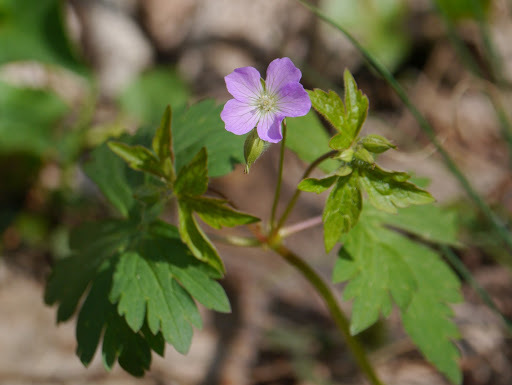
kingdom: Plantae
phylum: Tracheophyta
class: Magnoliopsida
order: Geraniales
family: Geraniaceae
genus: Geranium
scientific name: Geranium maculatum
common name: Spotted geranium
